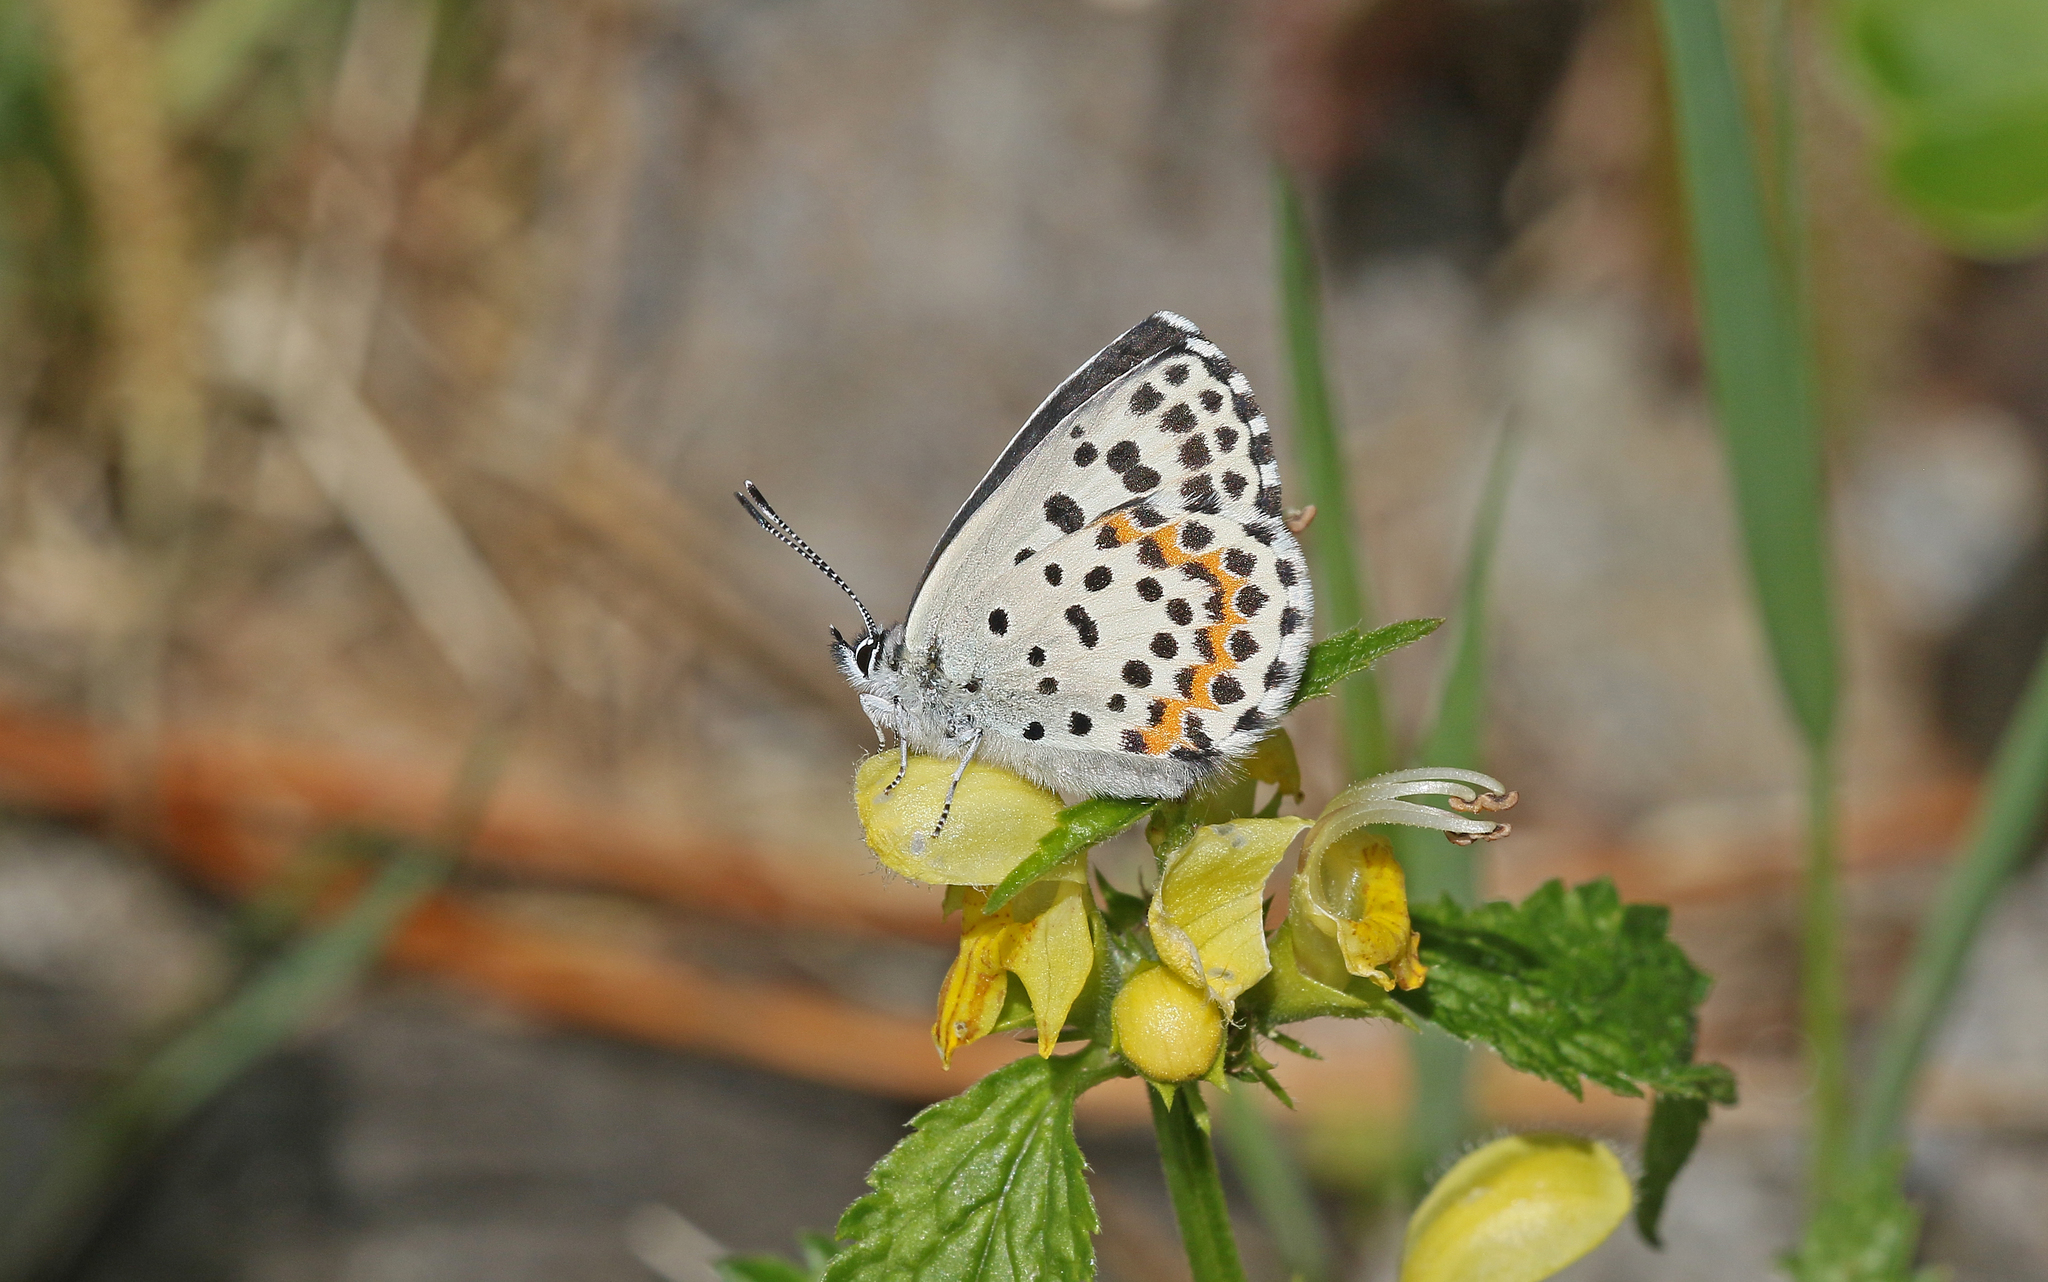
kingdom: Animalia
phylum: Arthropoda
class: Insecta
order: Lepidoptera
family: Lycaenidae
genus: Scolitantides
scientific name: Scolitantides orion
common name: Chequered blue
